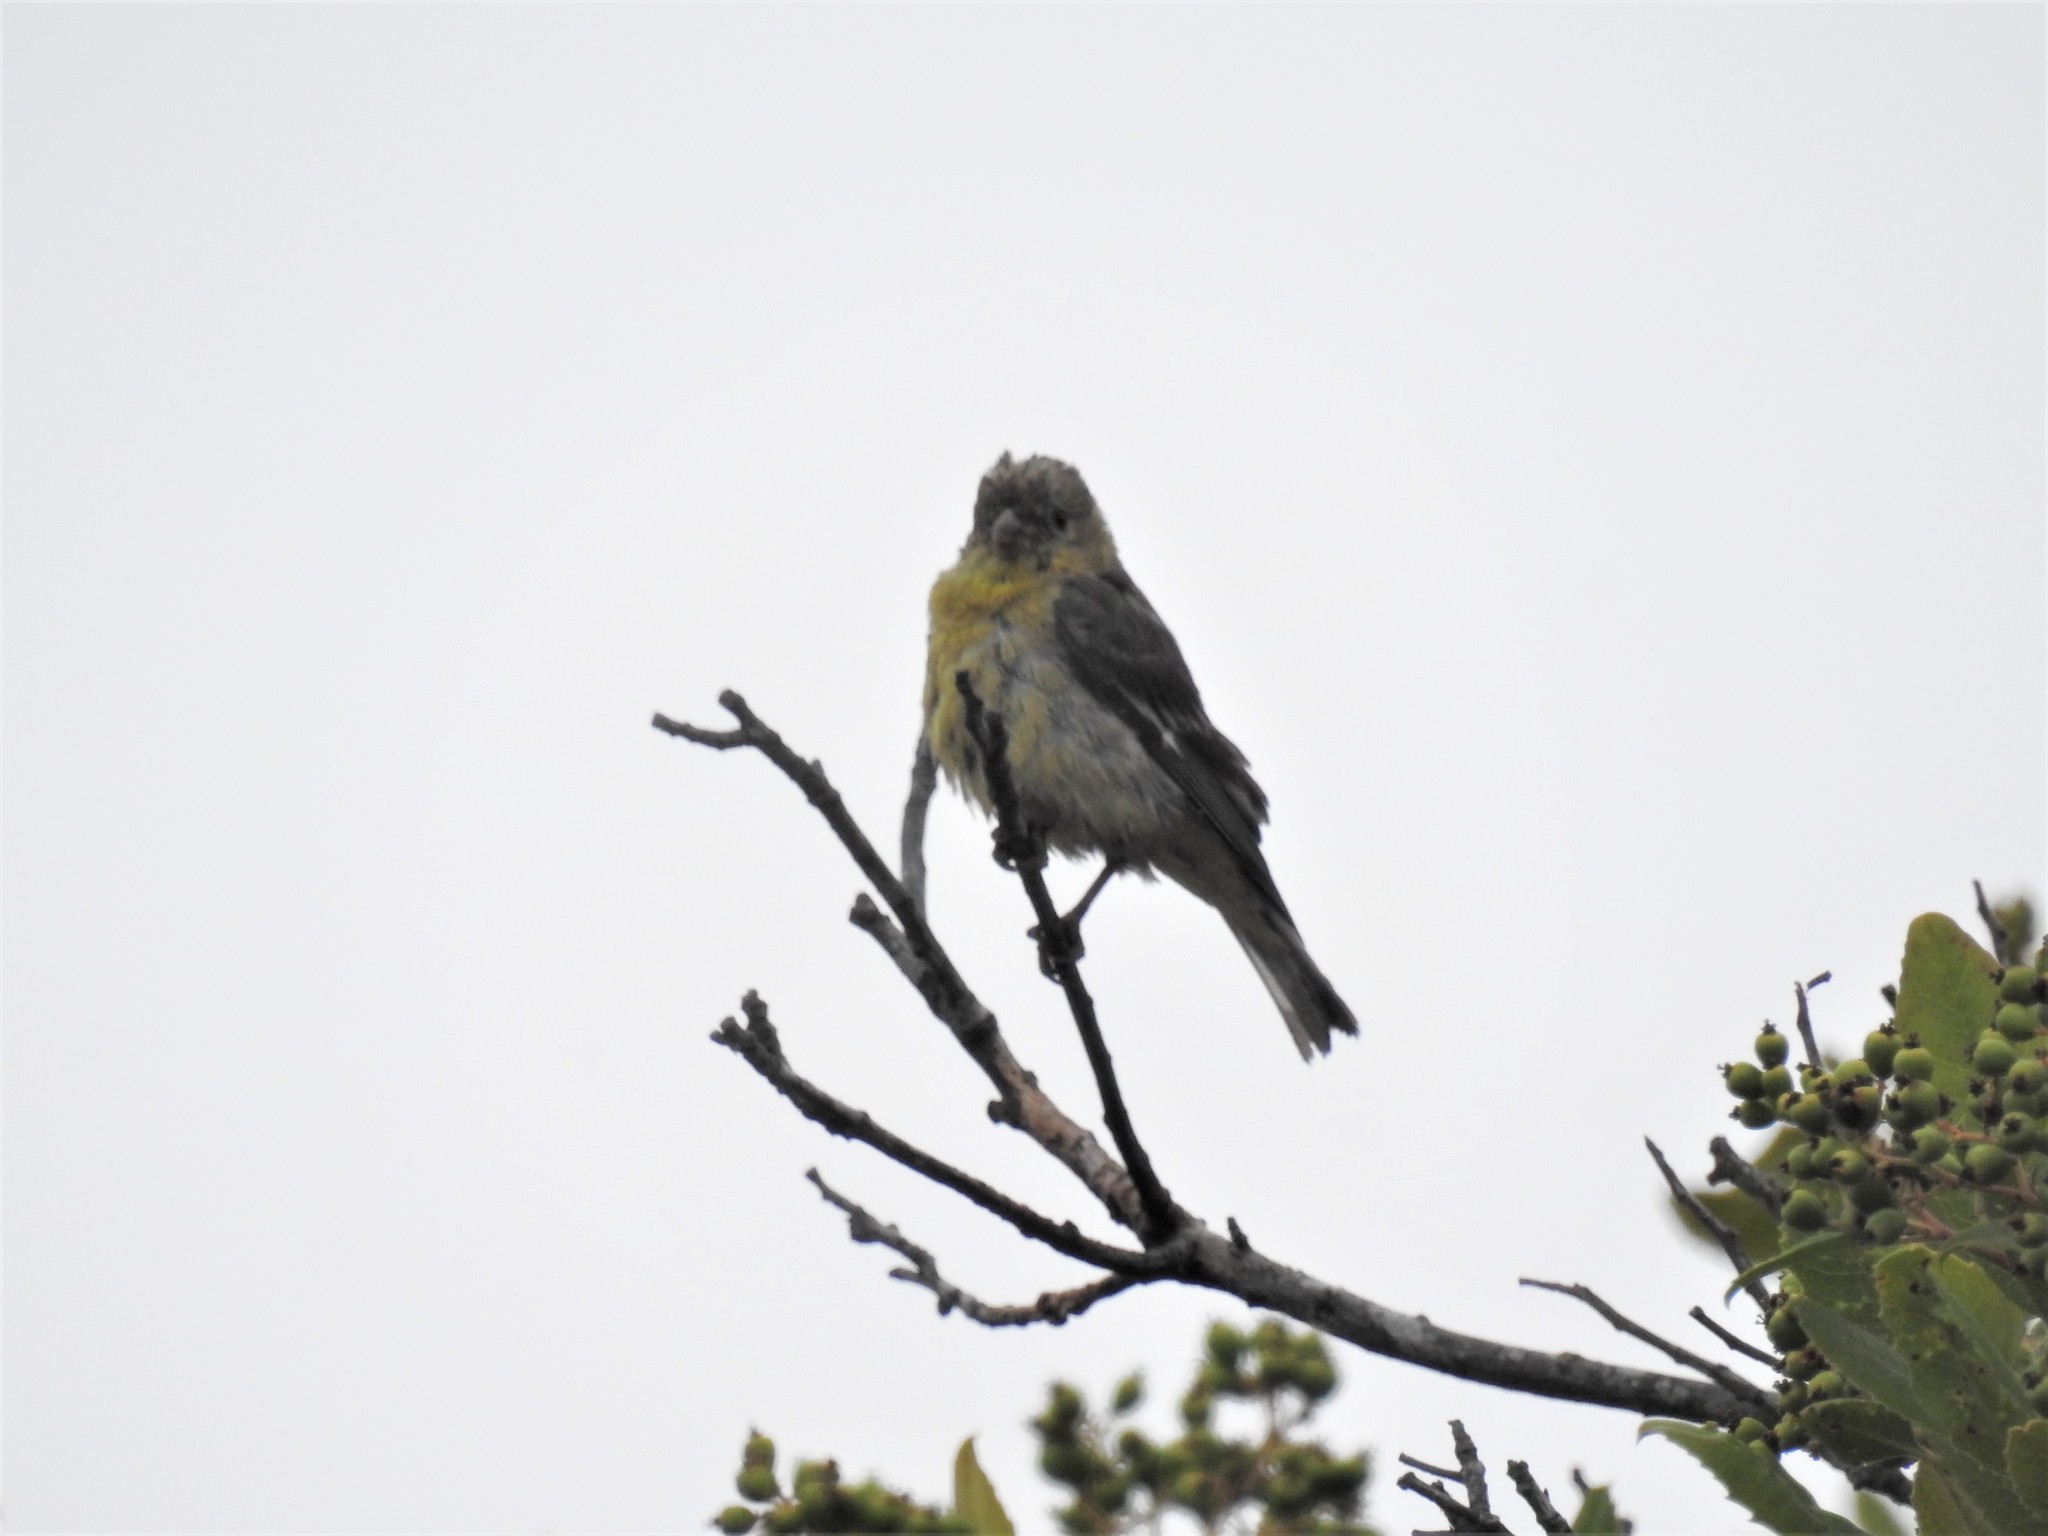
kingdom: Animalia
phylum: Chordata
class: Aves
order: Passeriformes
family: Fringillidae
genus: Spinus
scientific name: Spinus psaltria
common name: Lesser goldfinch
